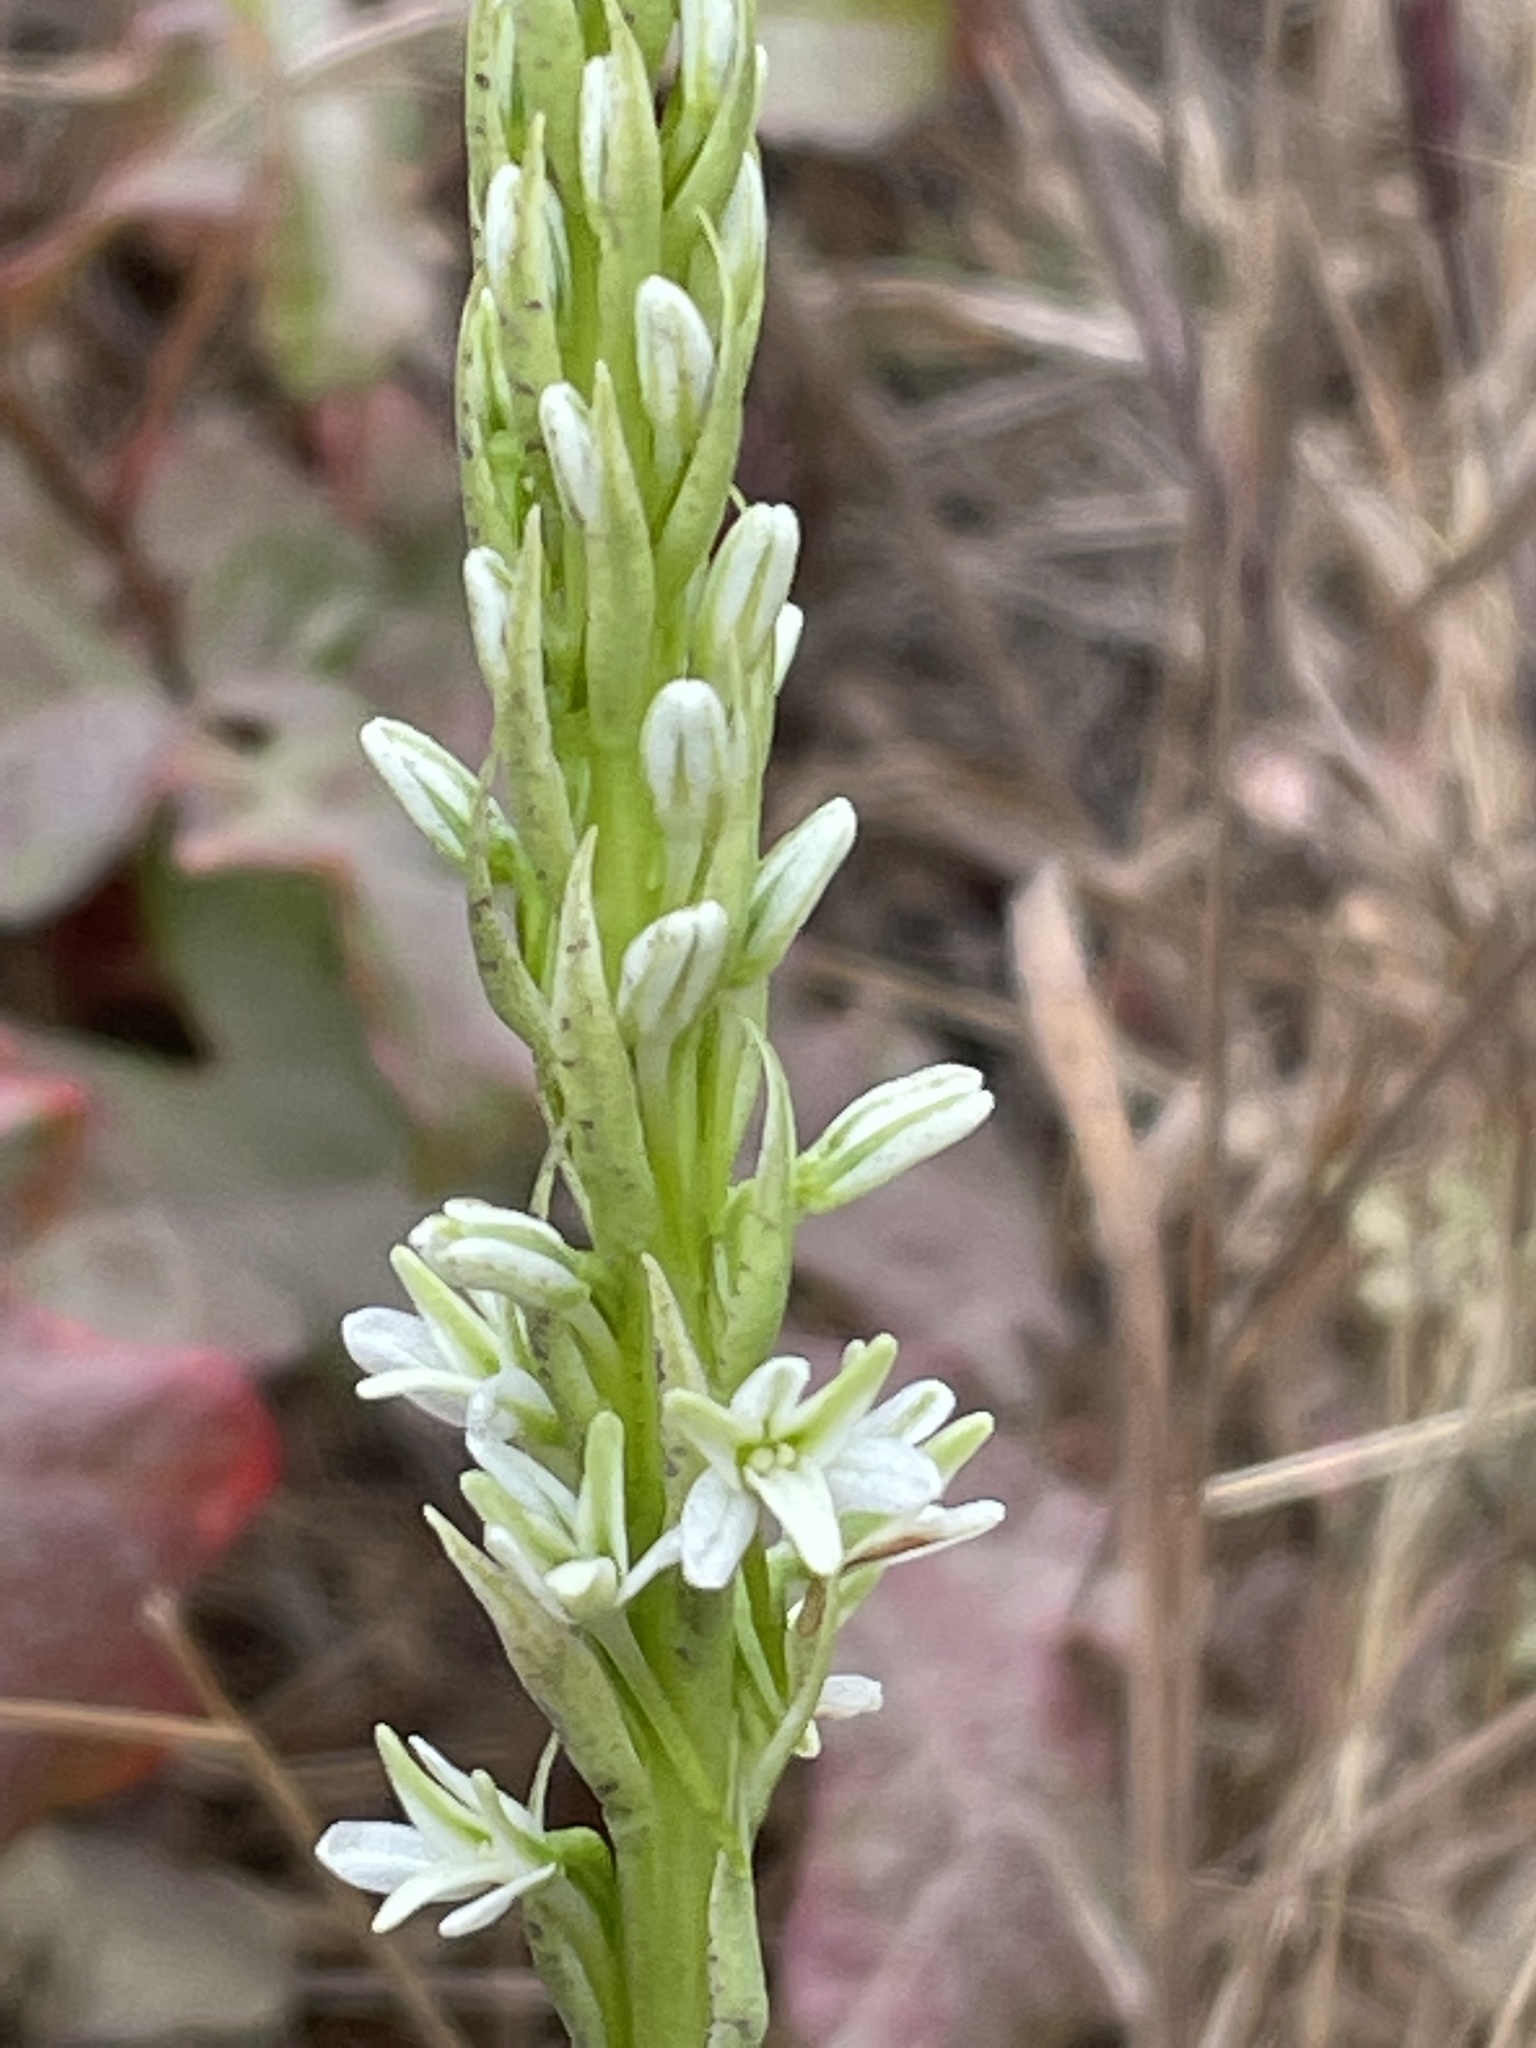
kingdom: Plantae
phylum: Tracheophyta
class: Liliopsida
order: Asparagales
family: Orchidaceae
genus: Platanthera
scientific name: Platanthera elegans
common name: Coast piperia
